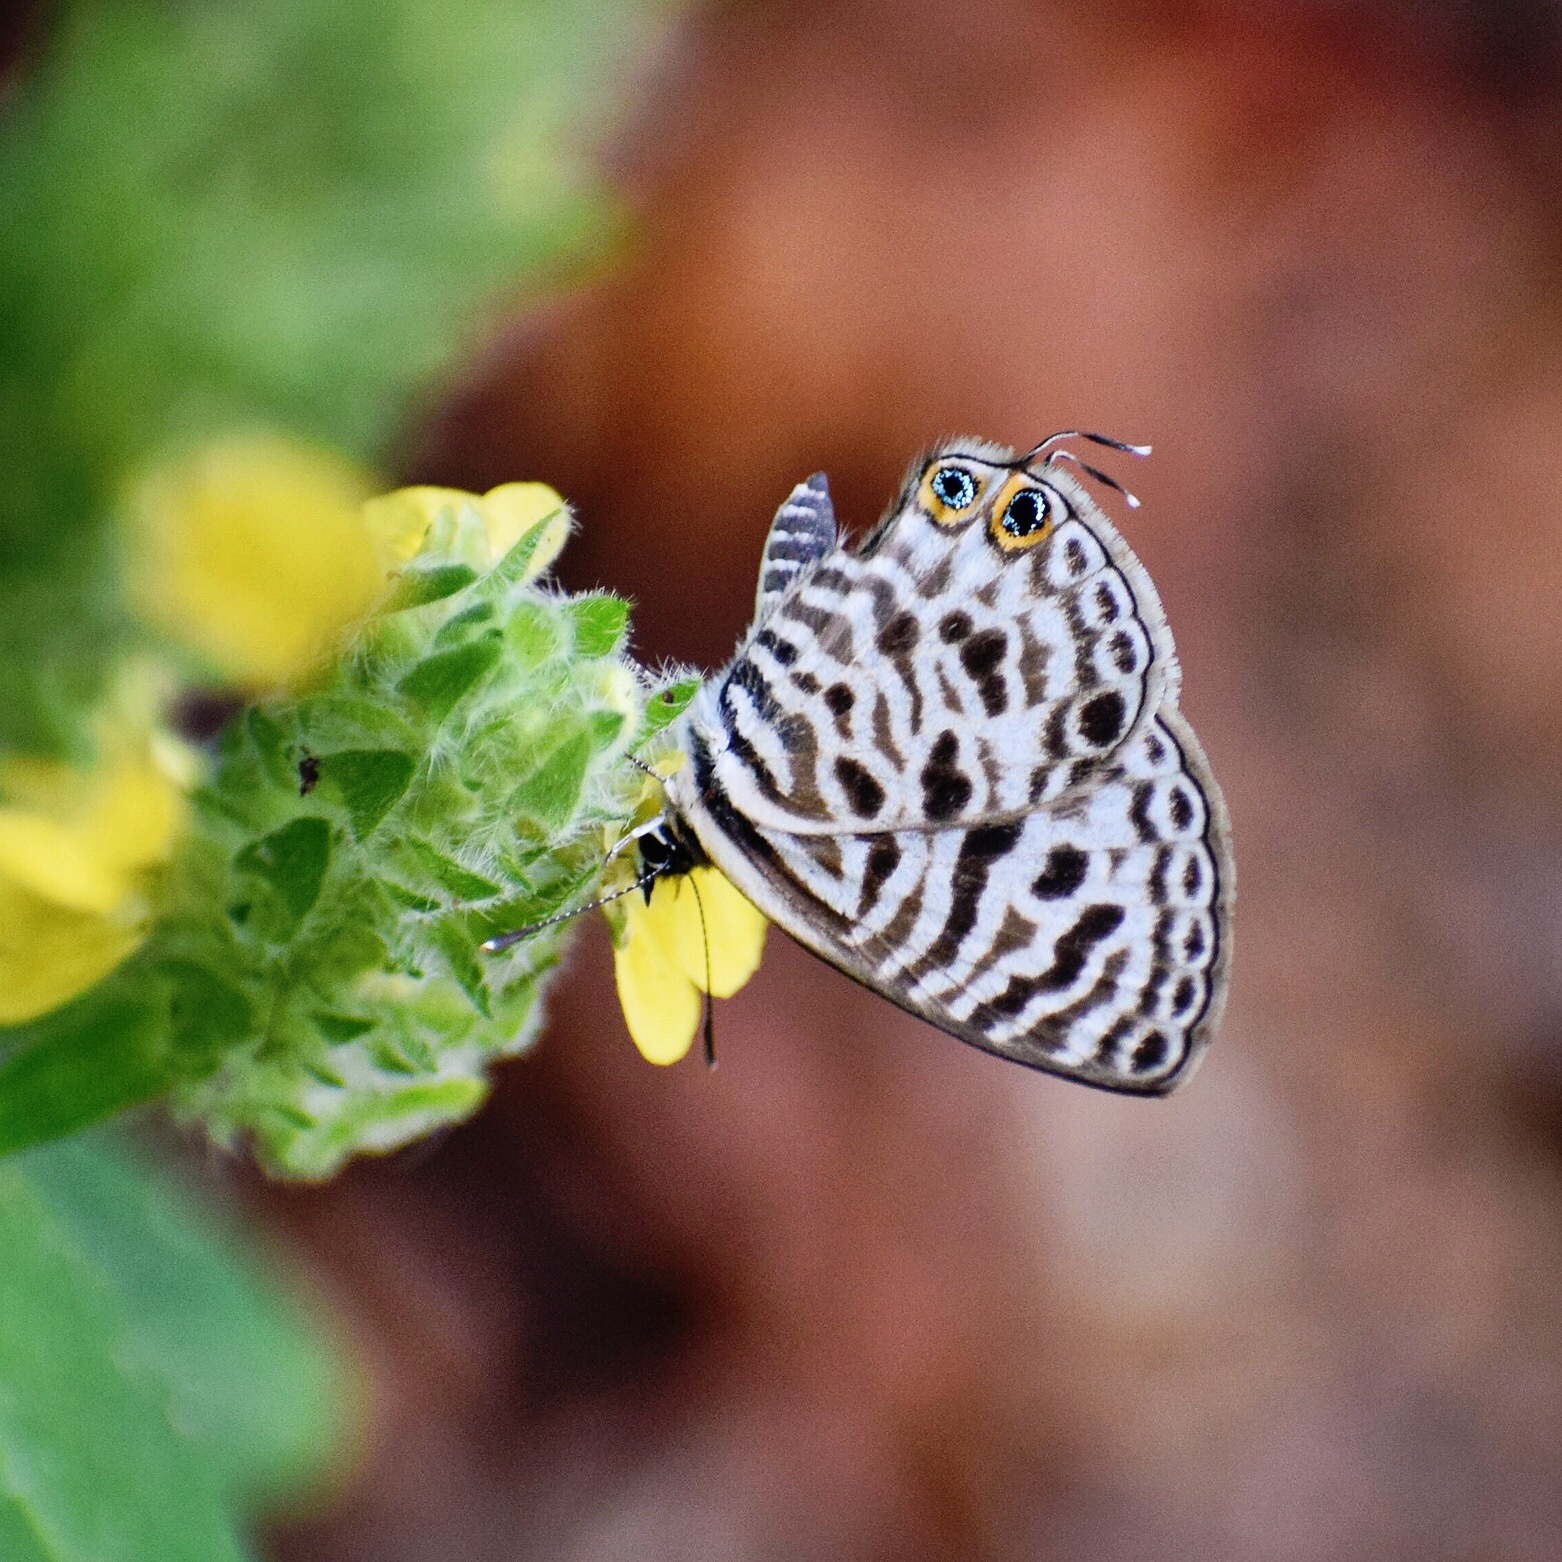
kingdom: Animalia
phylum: Arthropoda
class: Insecta
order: Lepidoptera
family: Lycaenidae
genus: Leptotes
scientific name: Leptotes
